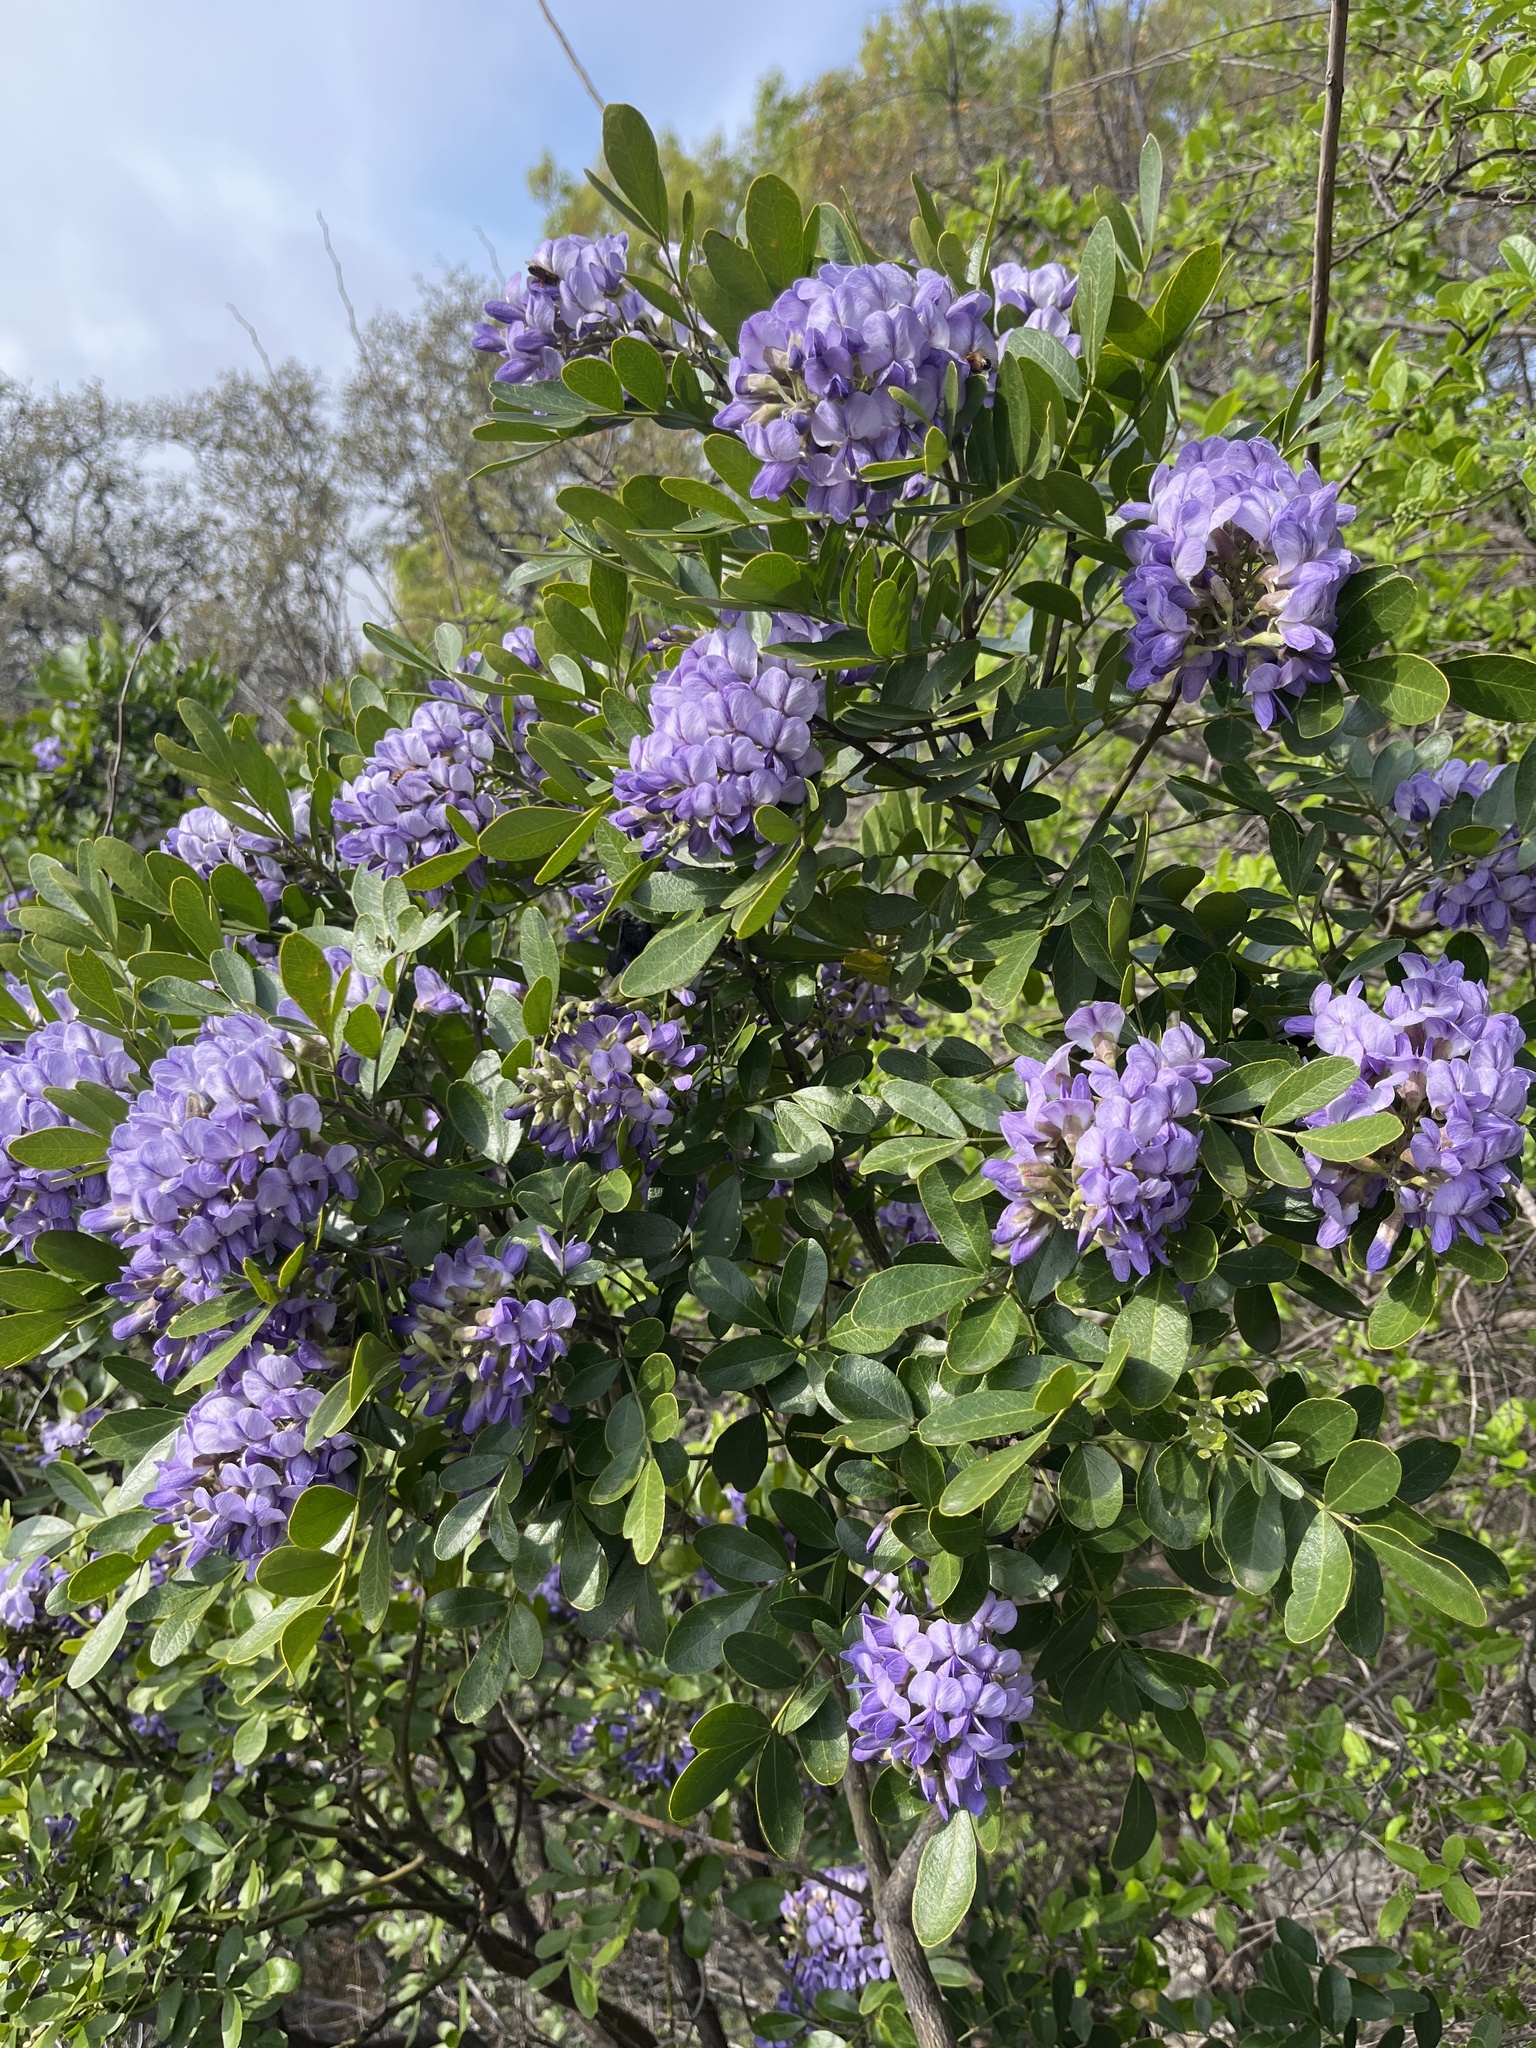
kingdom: Plantae
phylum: Tracheophyta
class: Magnoliopsida
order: Fabales
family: Fabaceae
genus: Dermatophyllum
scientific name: Dermatophyllum secundiflorum
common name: Texas-mountain-laurel
